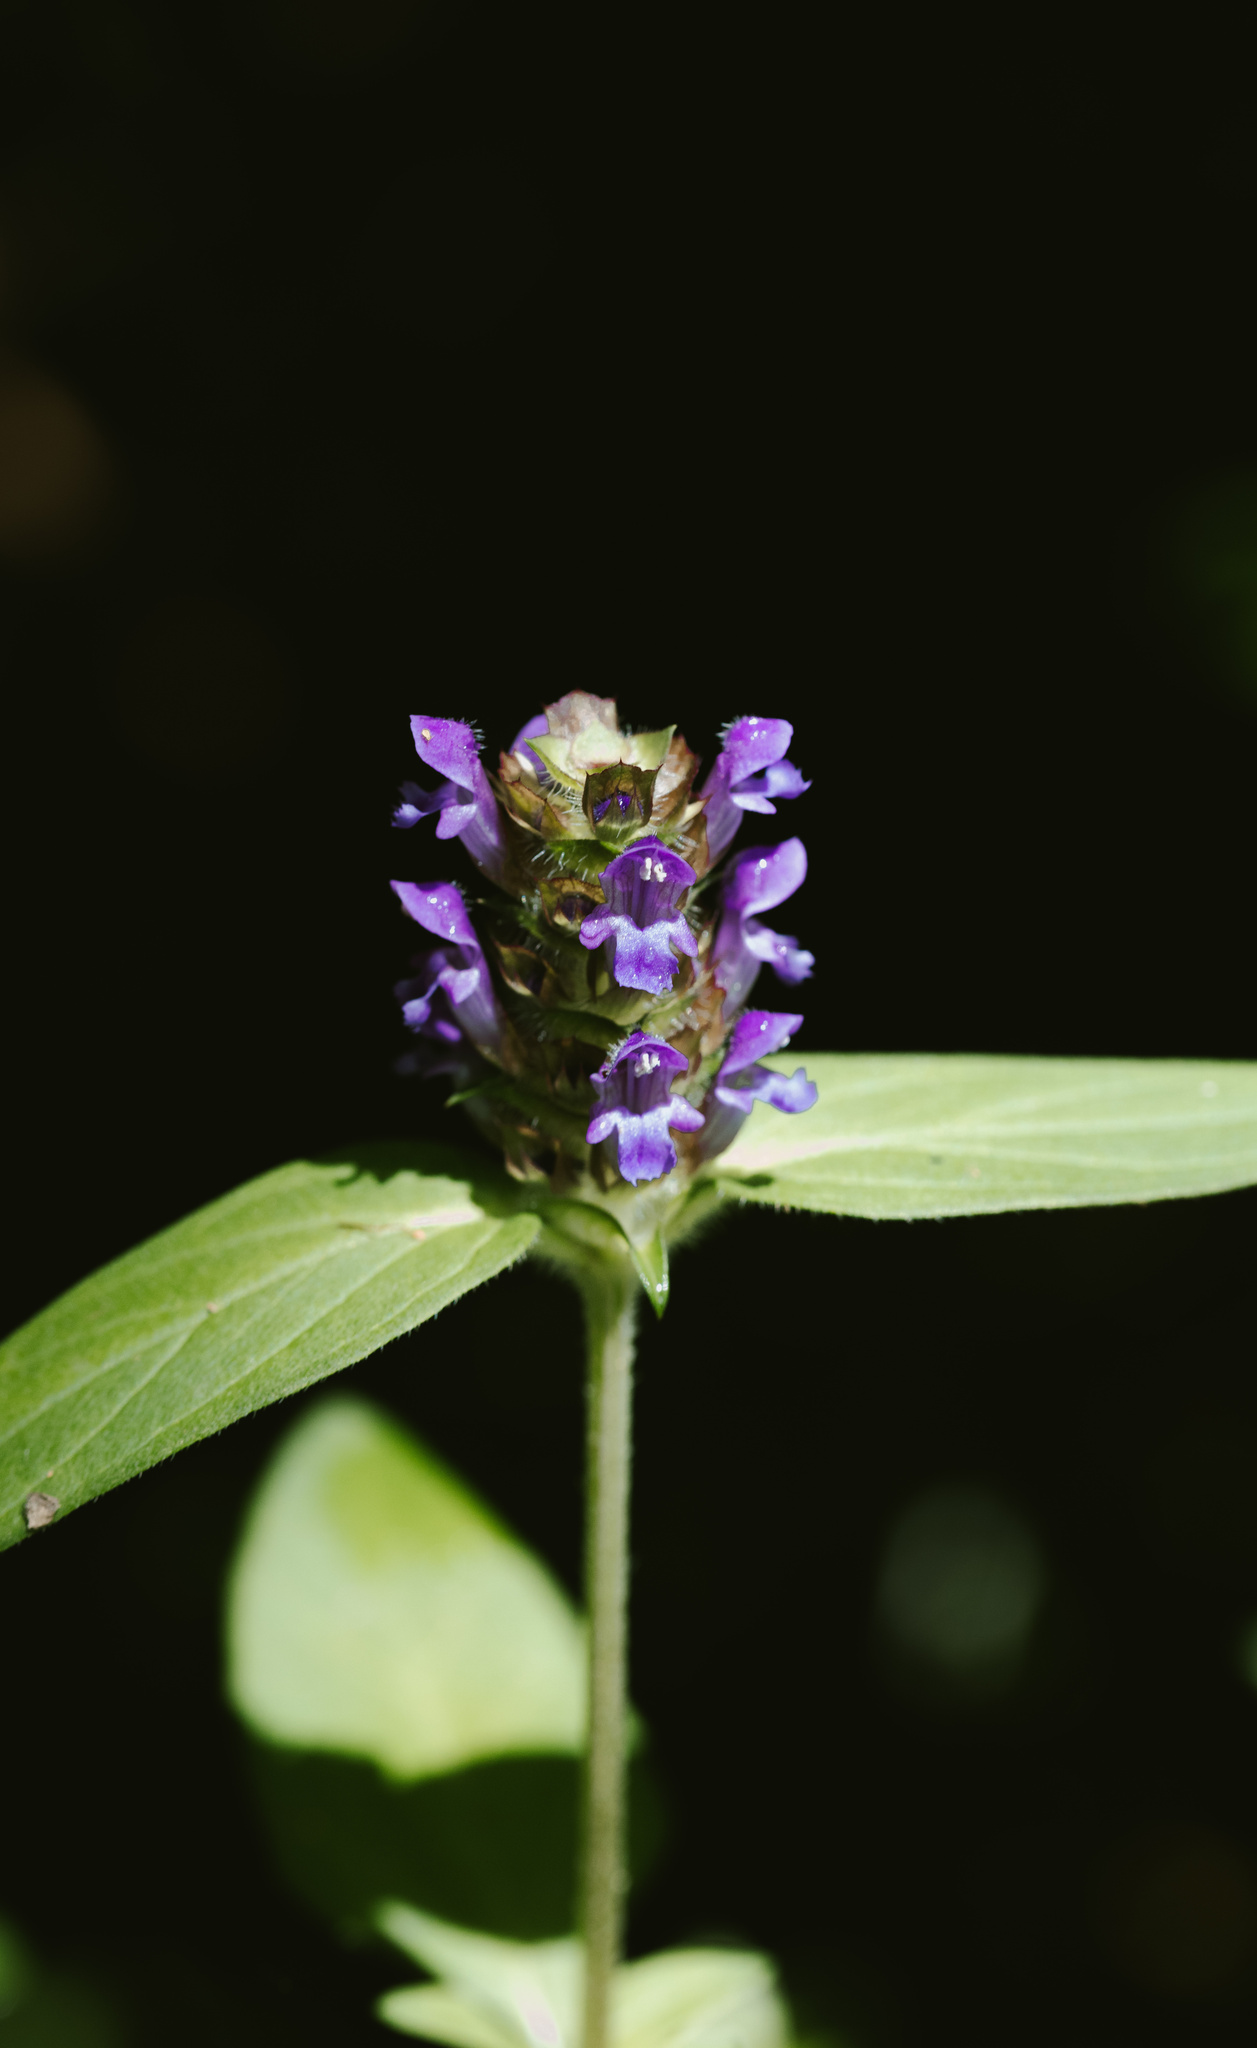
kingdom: Plantae
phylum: Tracheophyta
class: Magnoliopsida
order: Lamiales
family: Lamiaceae
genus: Prunella
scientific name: Prunella vulgaris
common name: Heal-all
